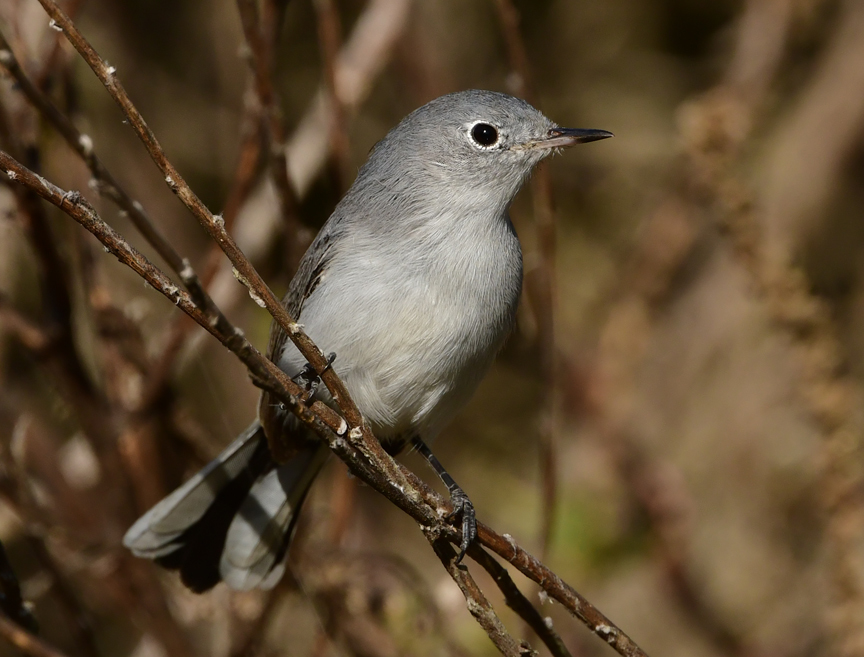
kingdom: Animalia
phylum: Chordata
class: Aves
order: Passeriformes
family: Polioptilidae
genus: Polioptila
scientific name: Polioptila caerulea
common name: Blue-gray gnatcatcher
